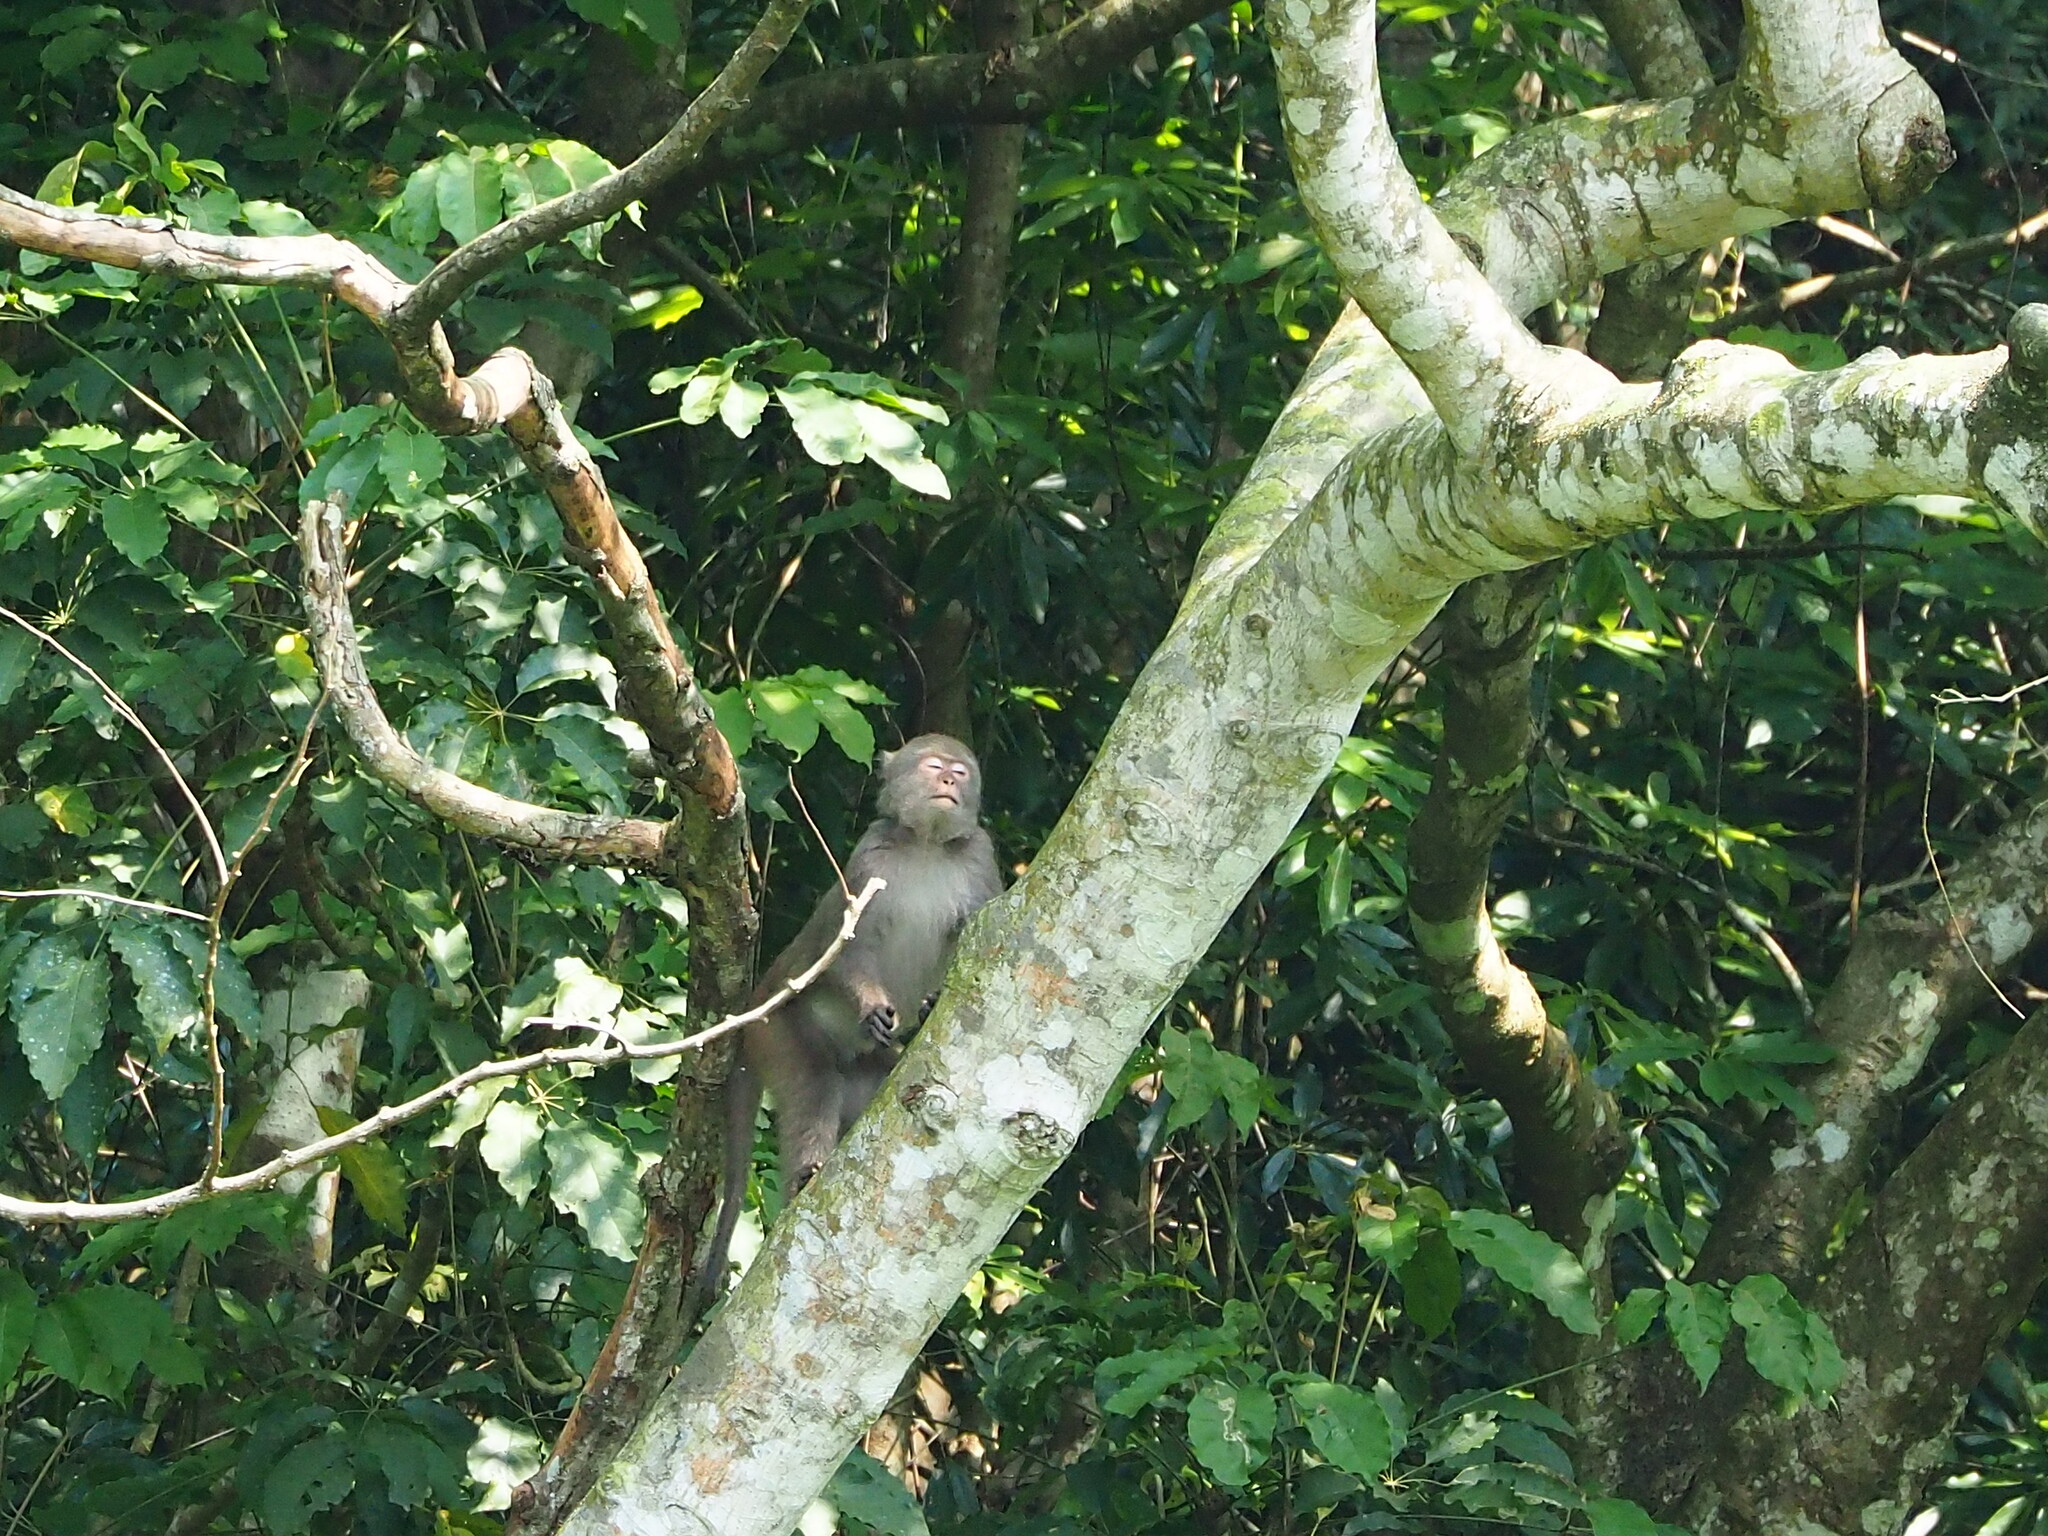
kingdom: Animalia
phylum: Chordata
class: Mammalia
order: Primates
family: Cercopithecidae
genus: Macaca
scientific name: Macaca cyclopis
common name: Formosan rock macaque
